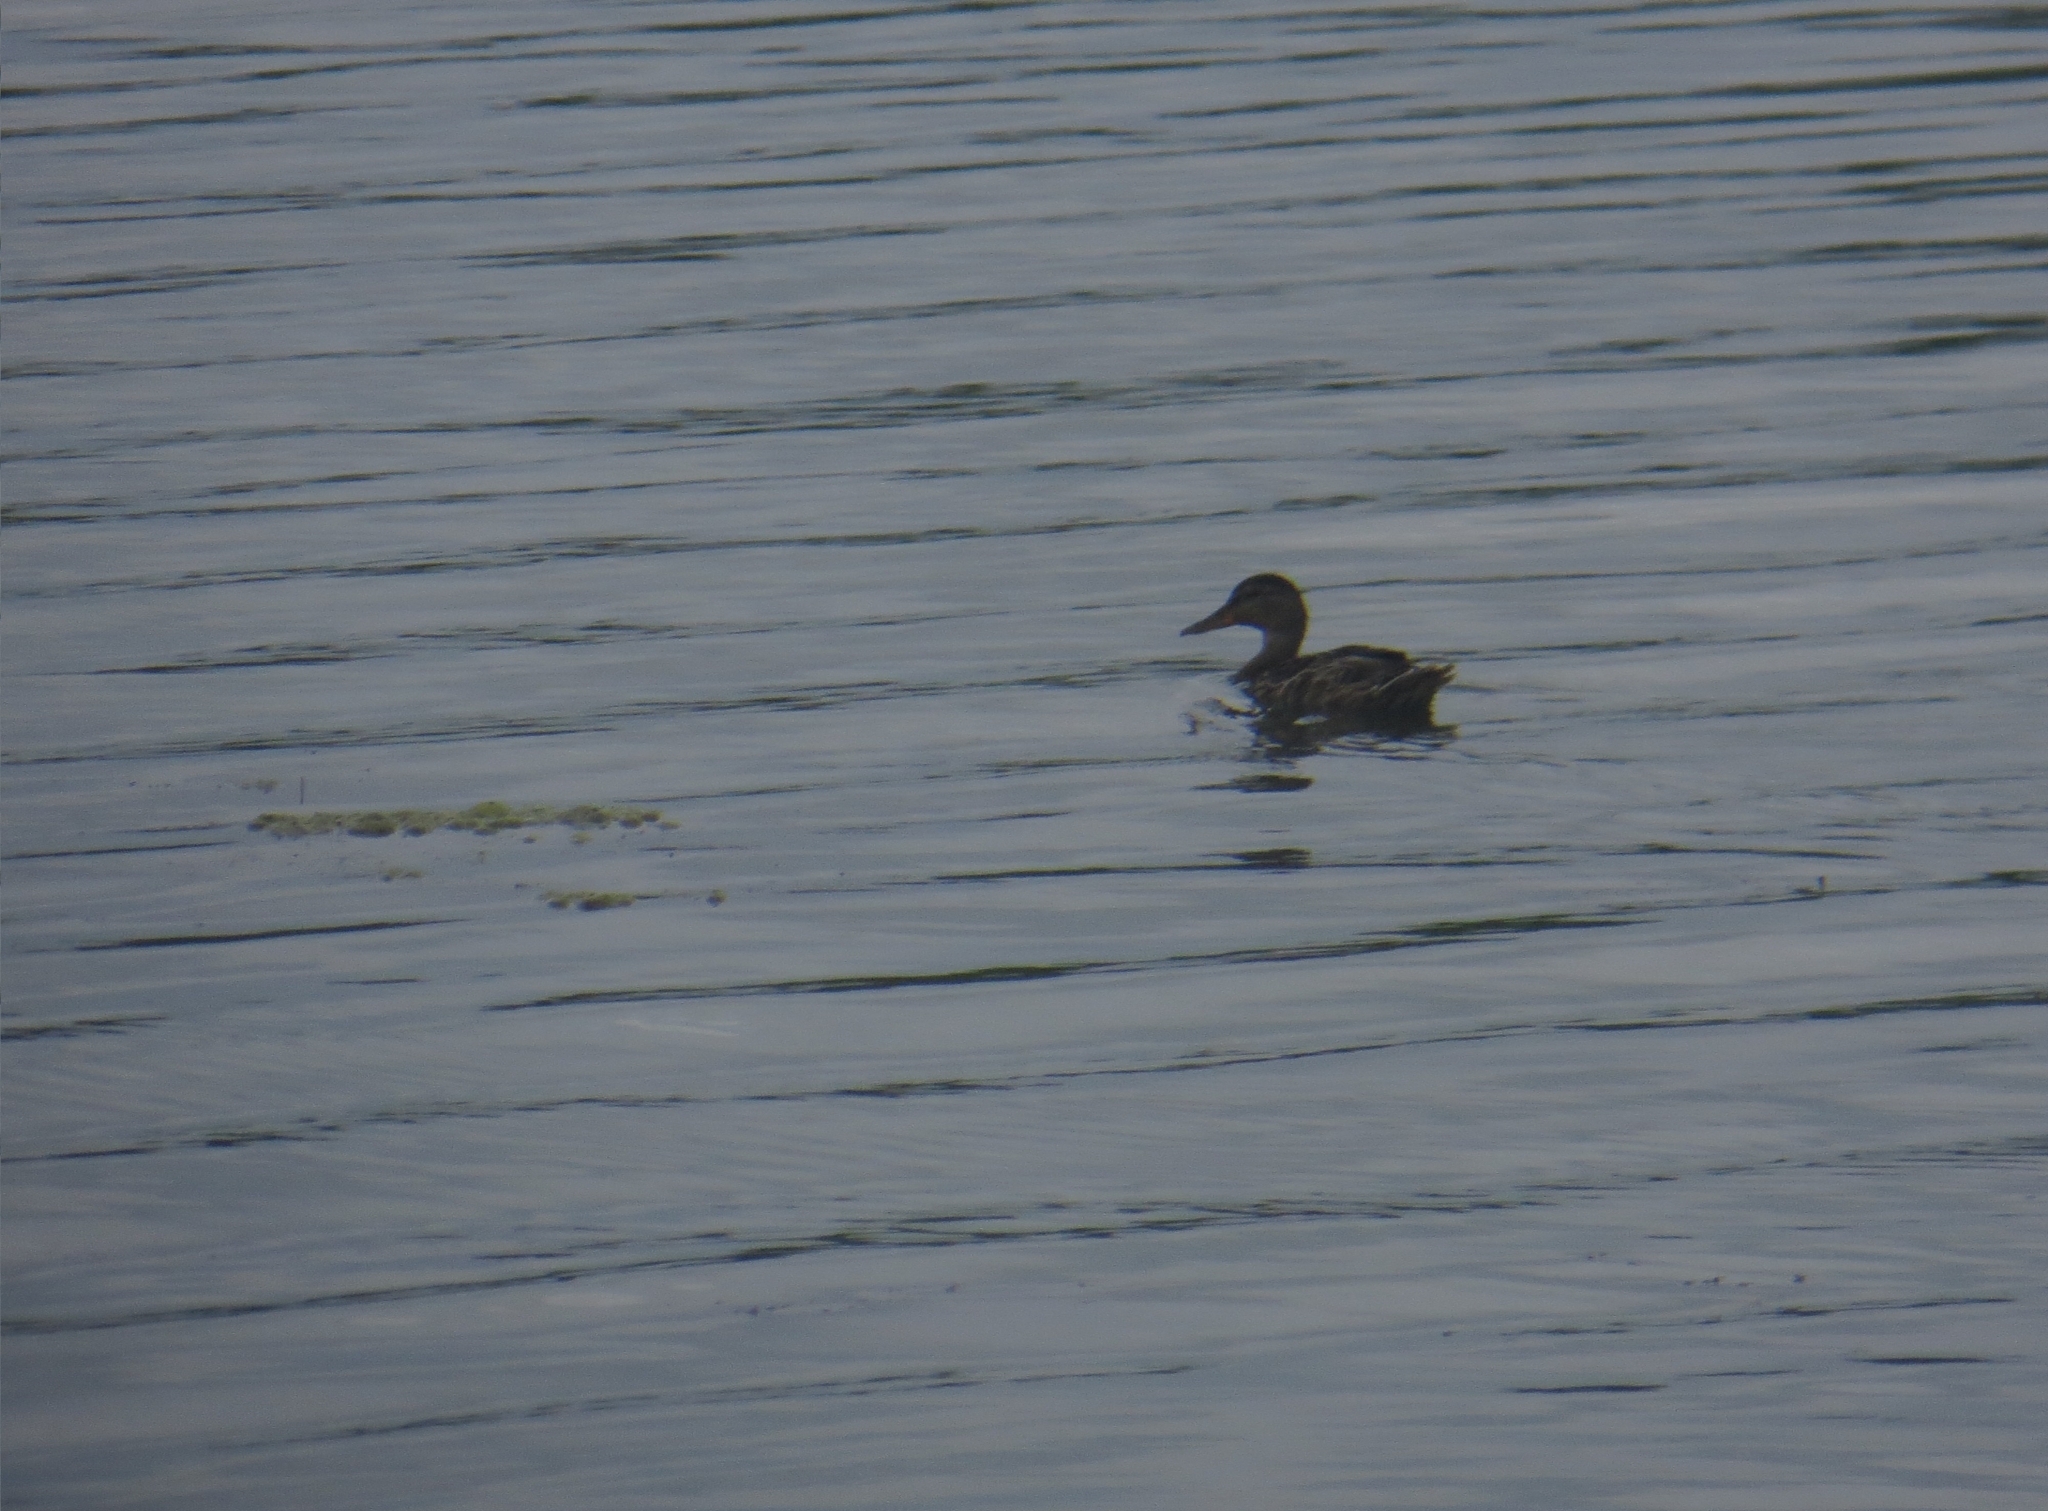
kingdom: Animalia
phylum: Chordata
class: Aves
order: Anseriformes
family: Anatidae
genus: Anas
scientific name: Anas platyrhynchos
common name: Mallard
